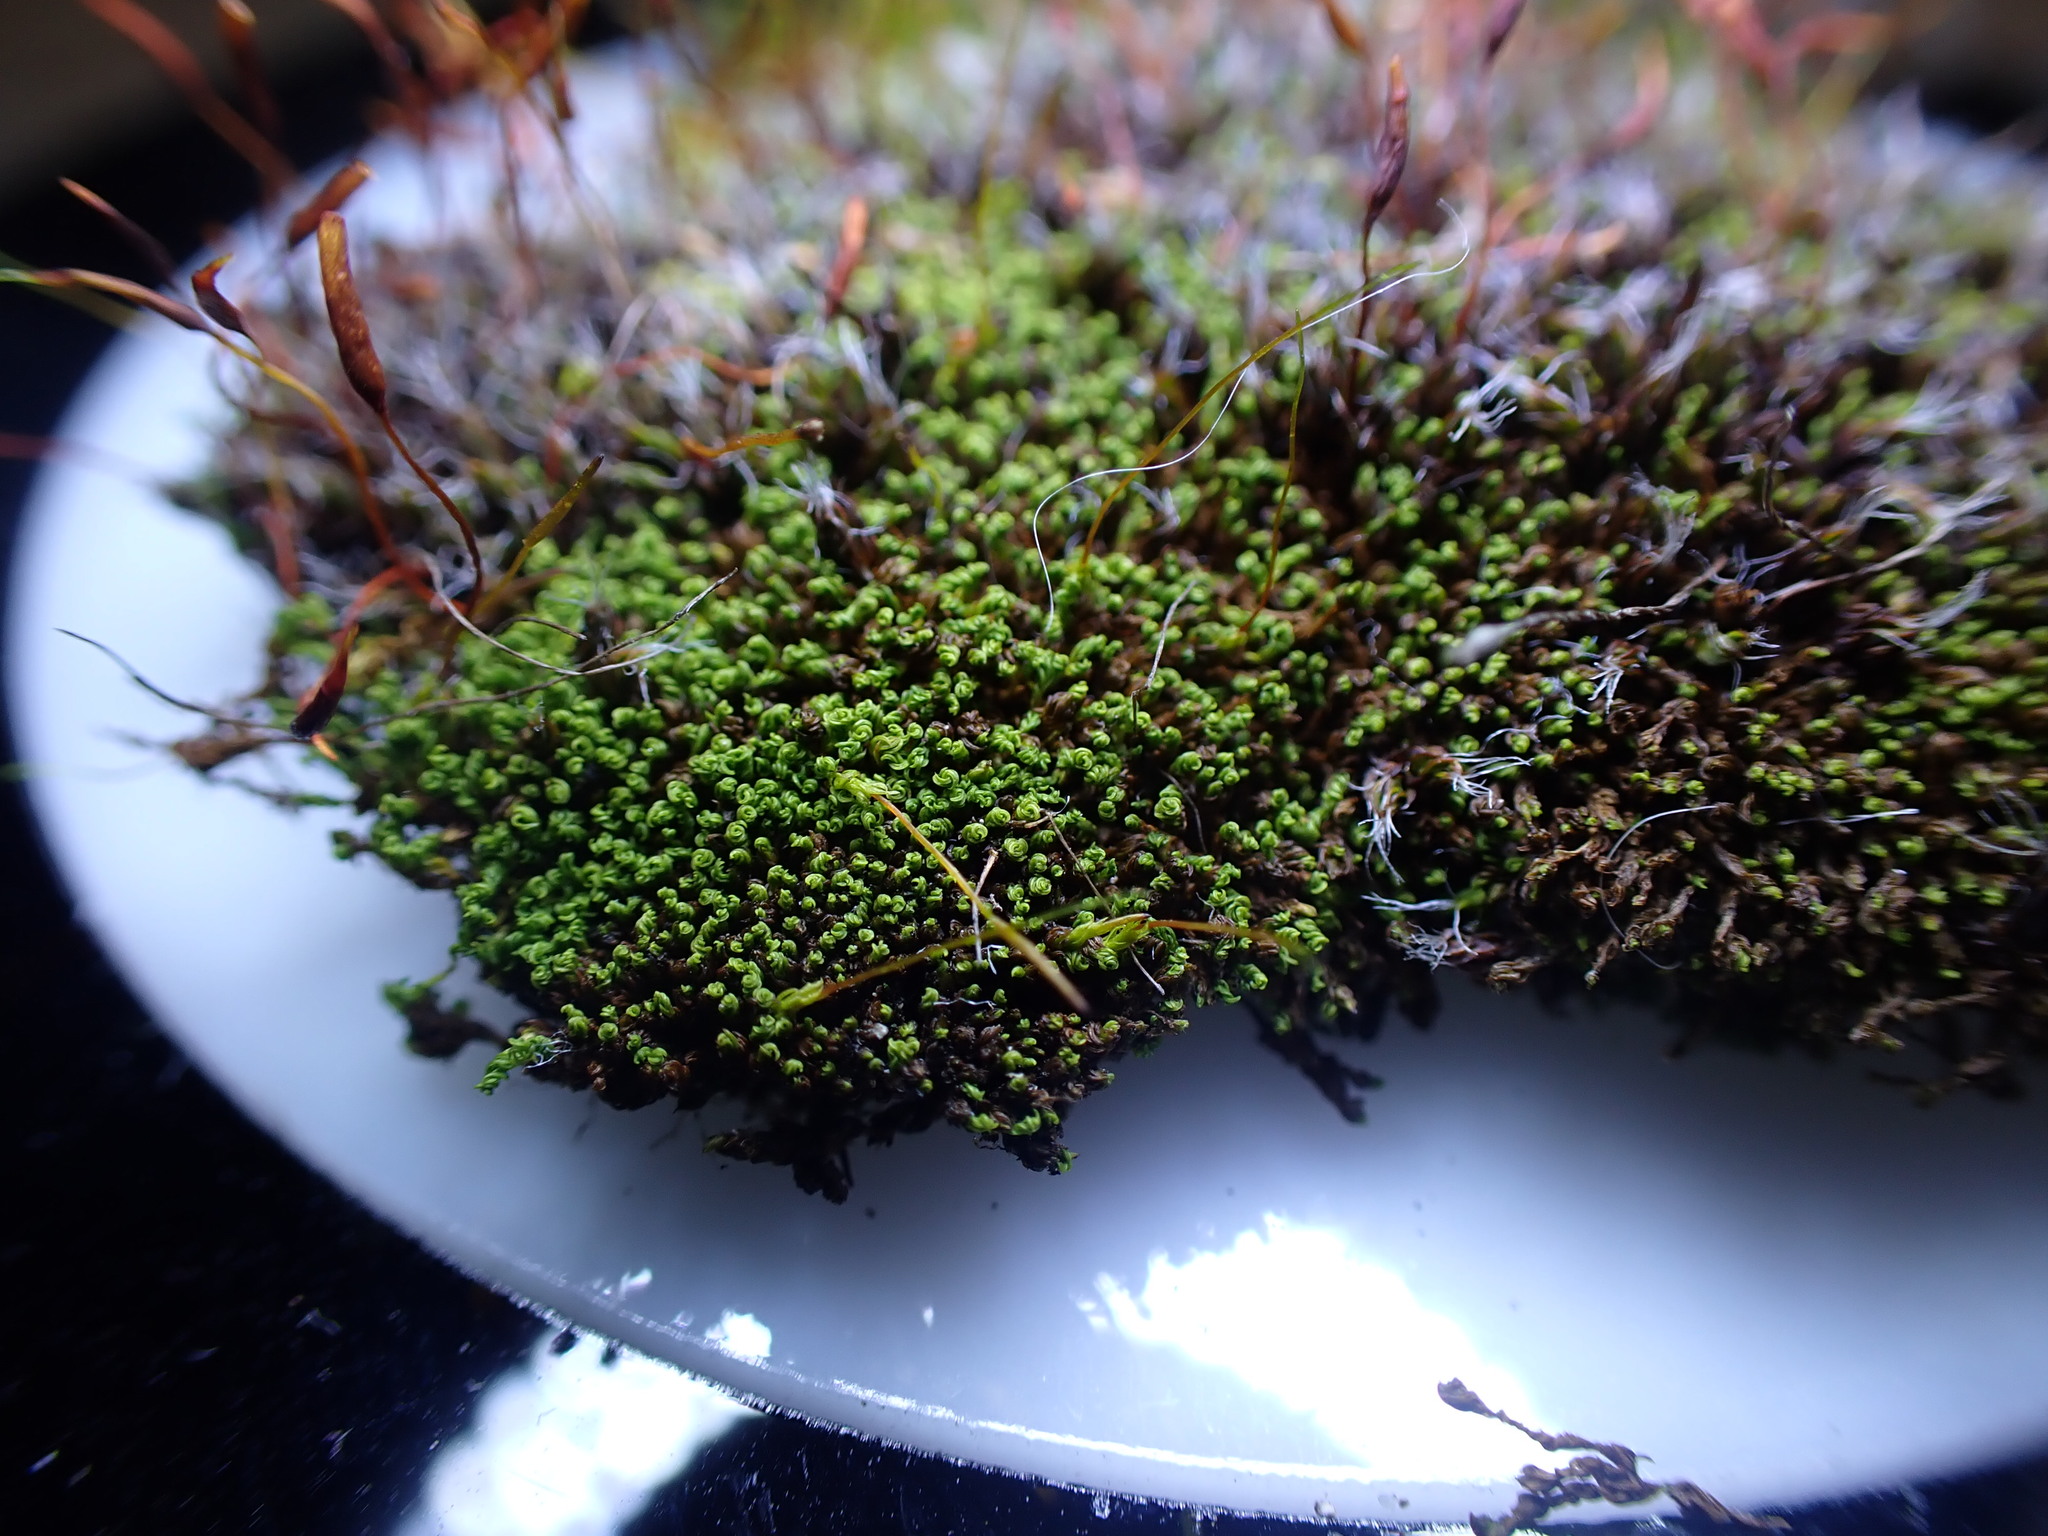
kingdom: Plantae
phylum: Bryophyta
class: Bryopsida
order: Pottiales
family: Pottiaceae
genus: Pseudocrossidium
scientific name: Pseudocrossidium revolutum
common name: Revolute beard-moss
